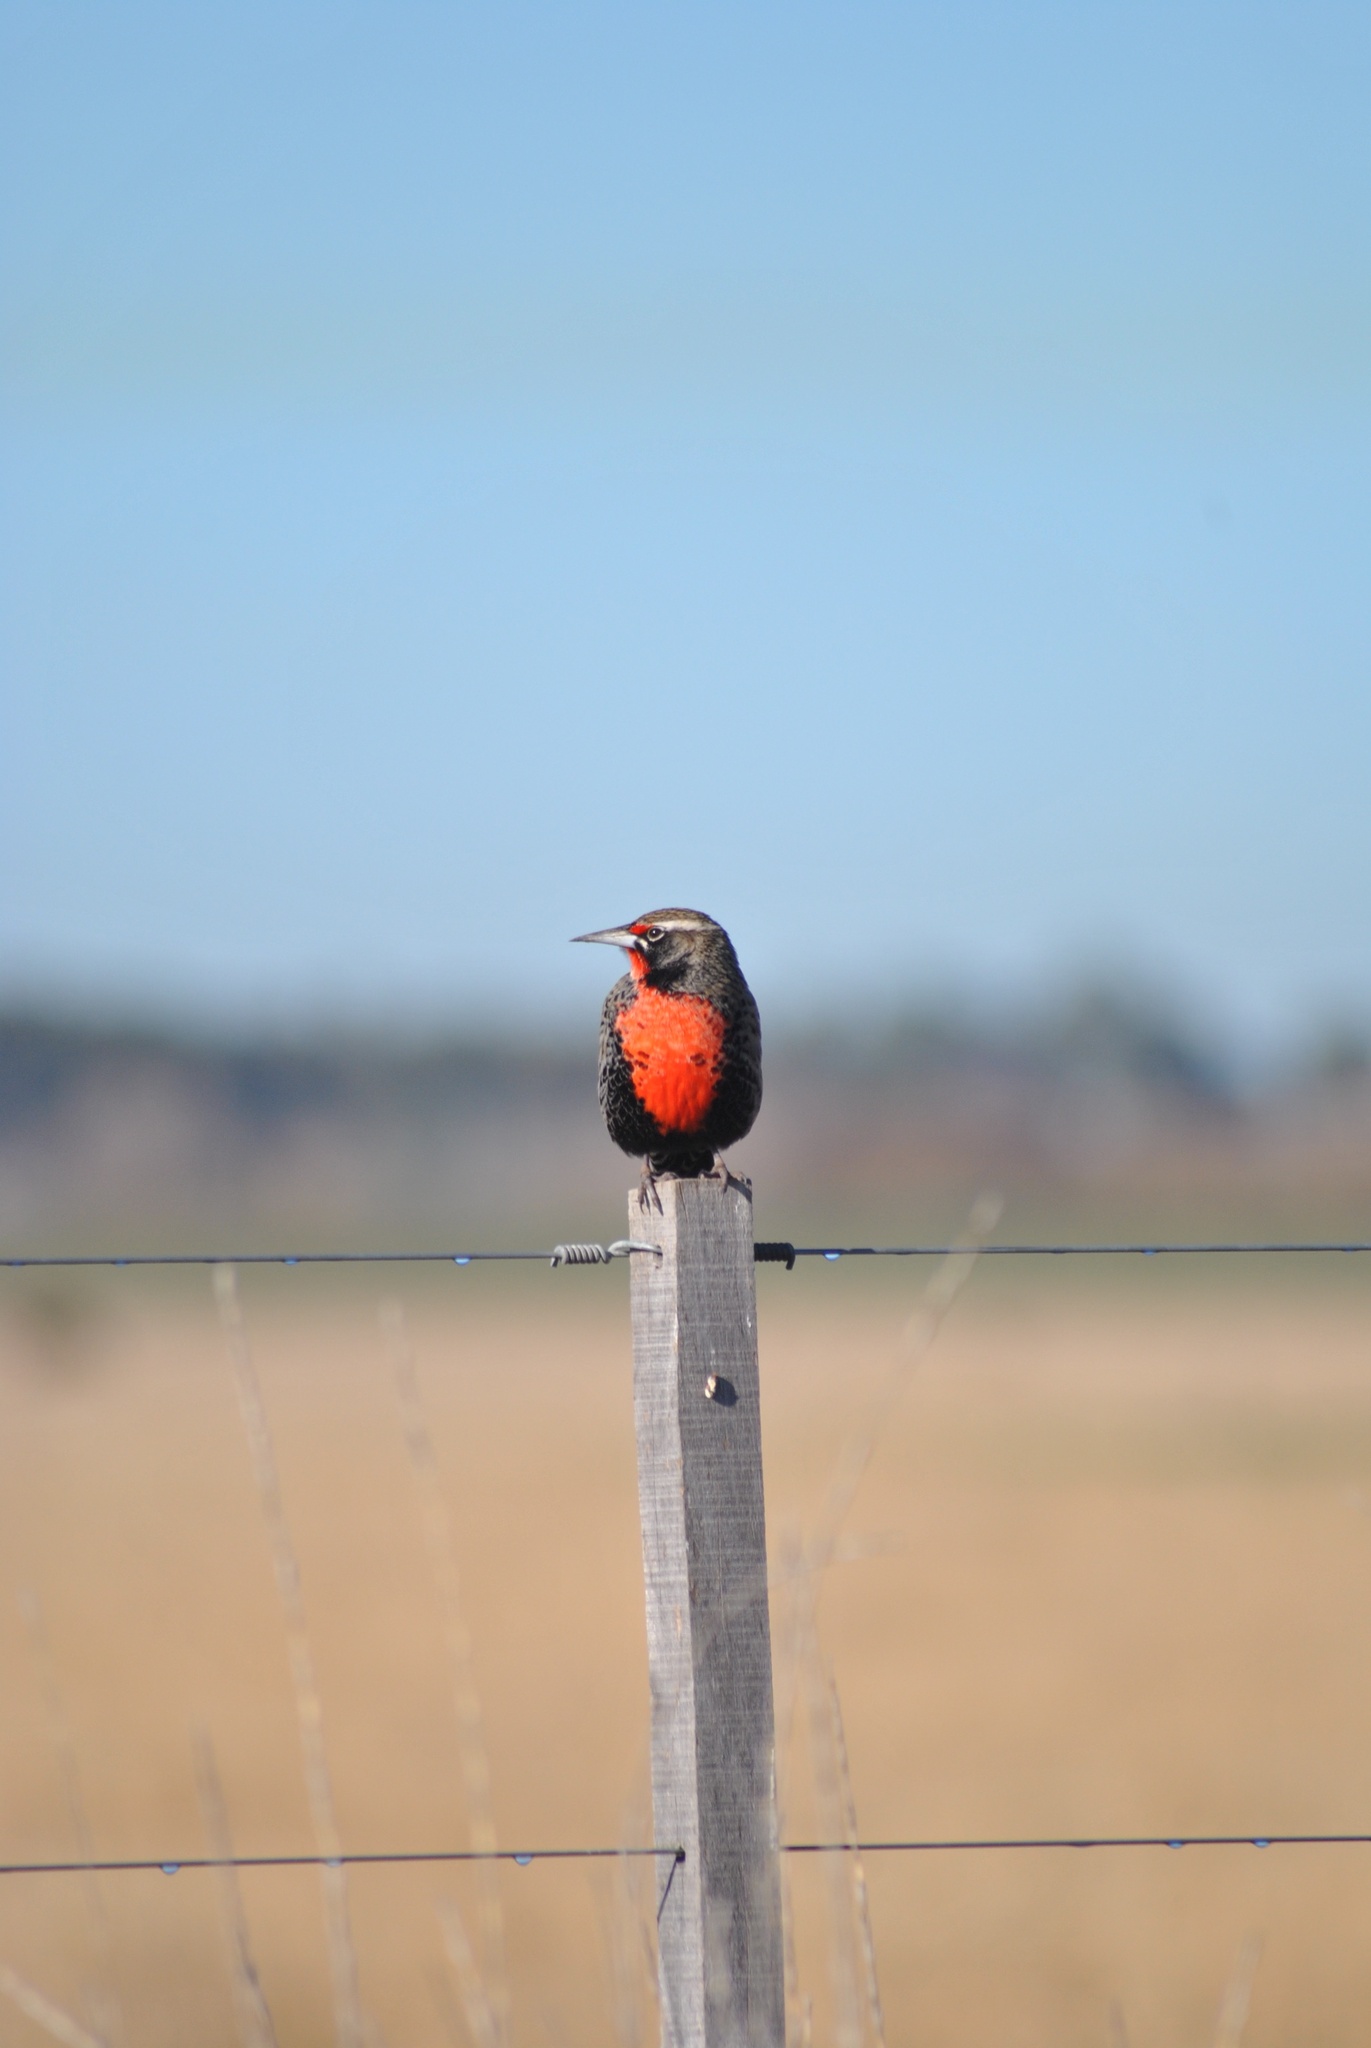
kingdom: Animalia
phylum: Chordata
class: Aves
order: Passeriformes
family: Icteridae
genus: Sturnella
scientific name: Sturnella loyca
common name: Long-tailed meadowlark
